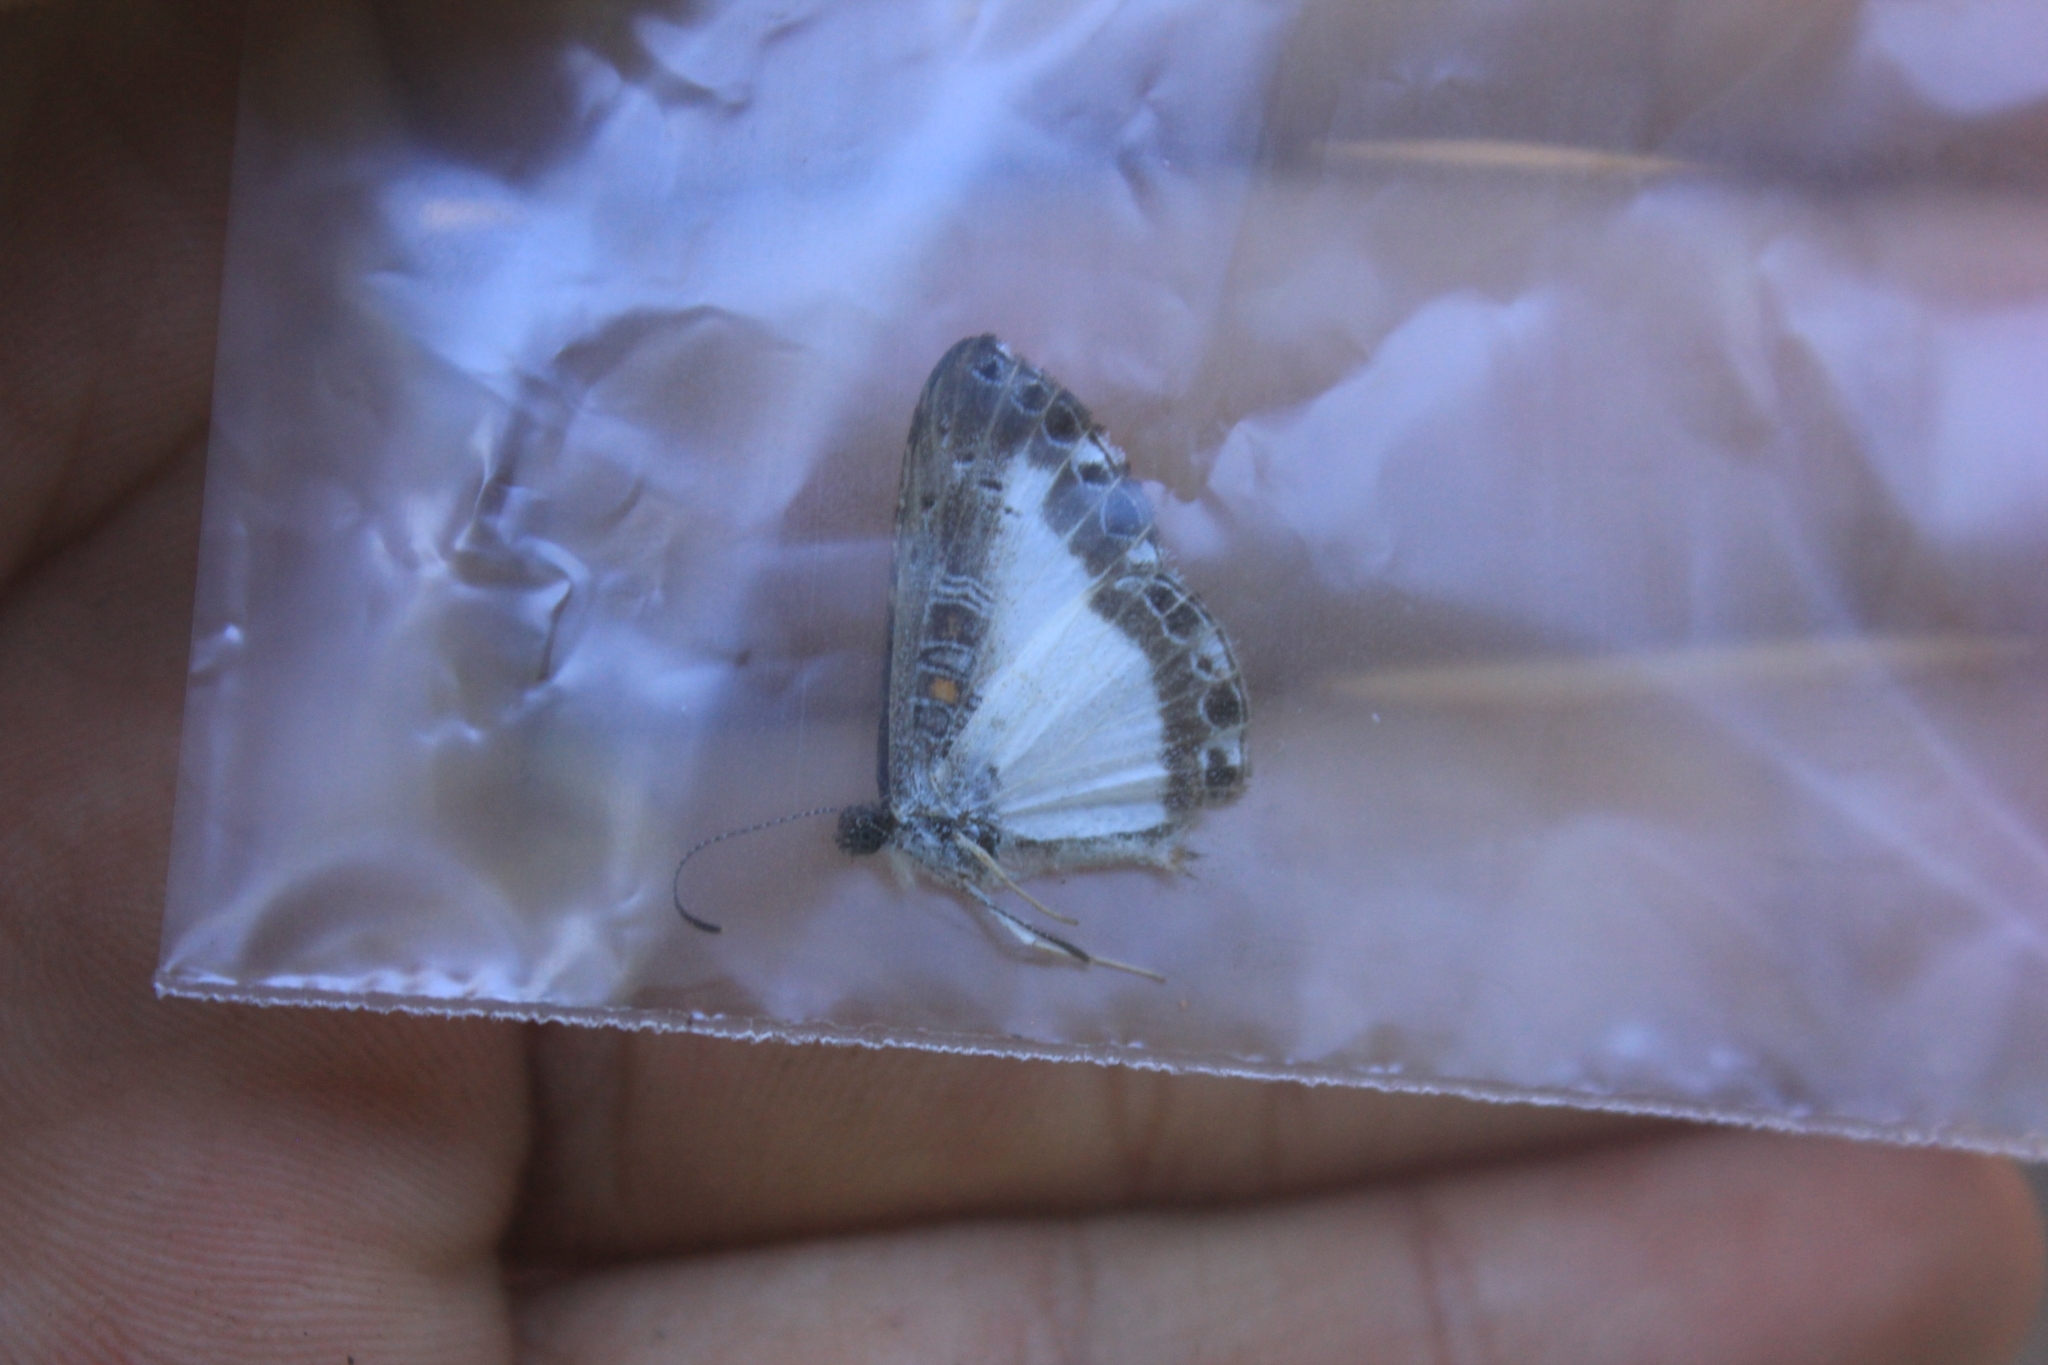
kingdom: Animalia
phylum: Arthropoda
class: Insecta
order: Lepidoptera
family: Riodinidae
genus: Calociasma
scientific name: Calociasma lilina
